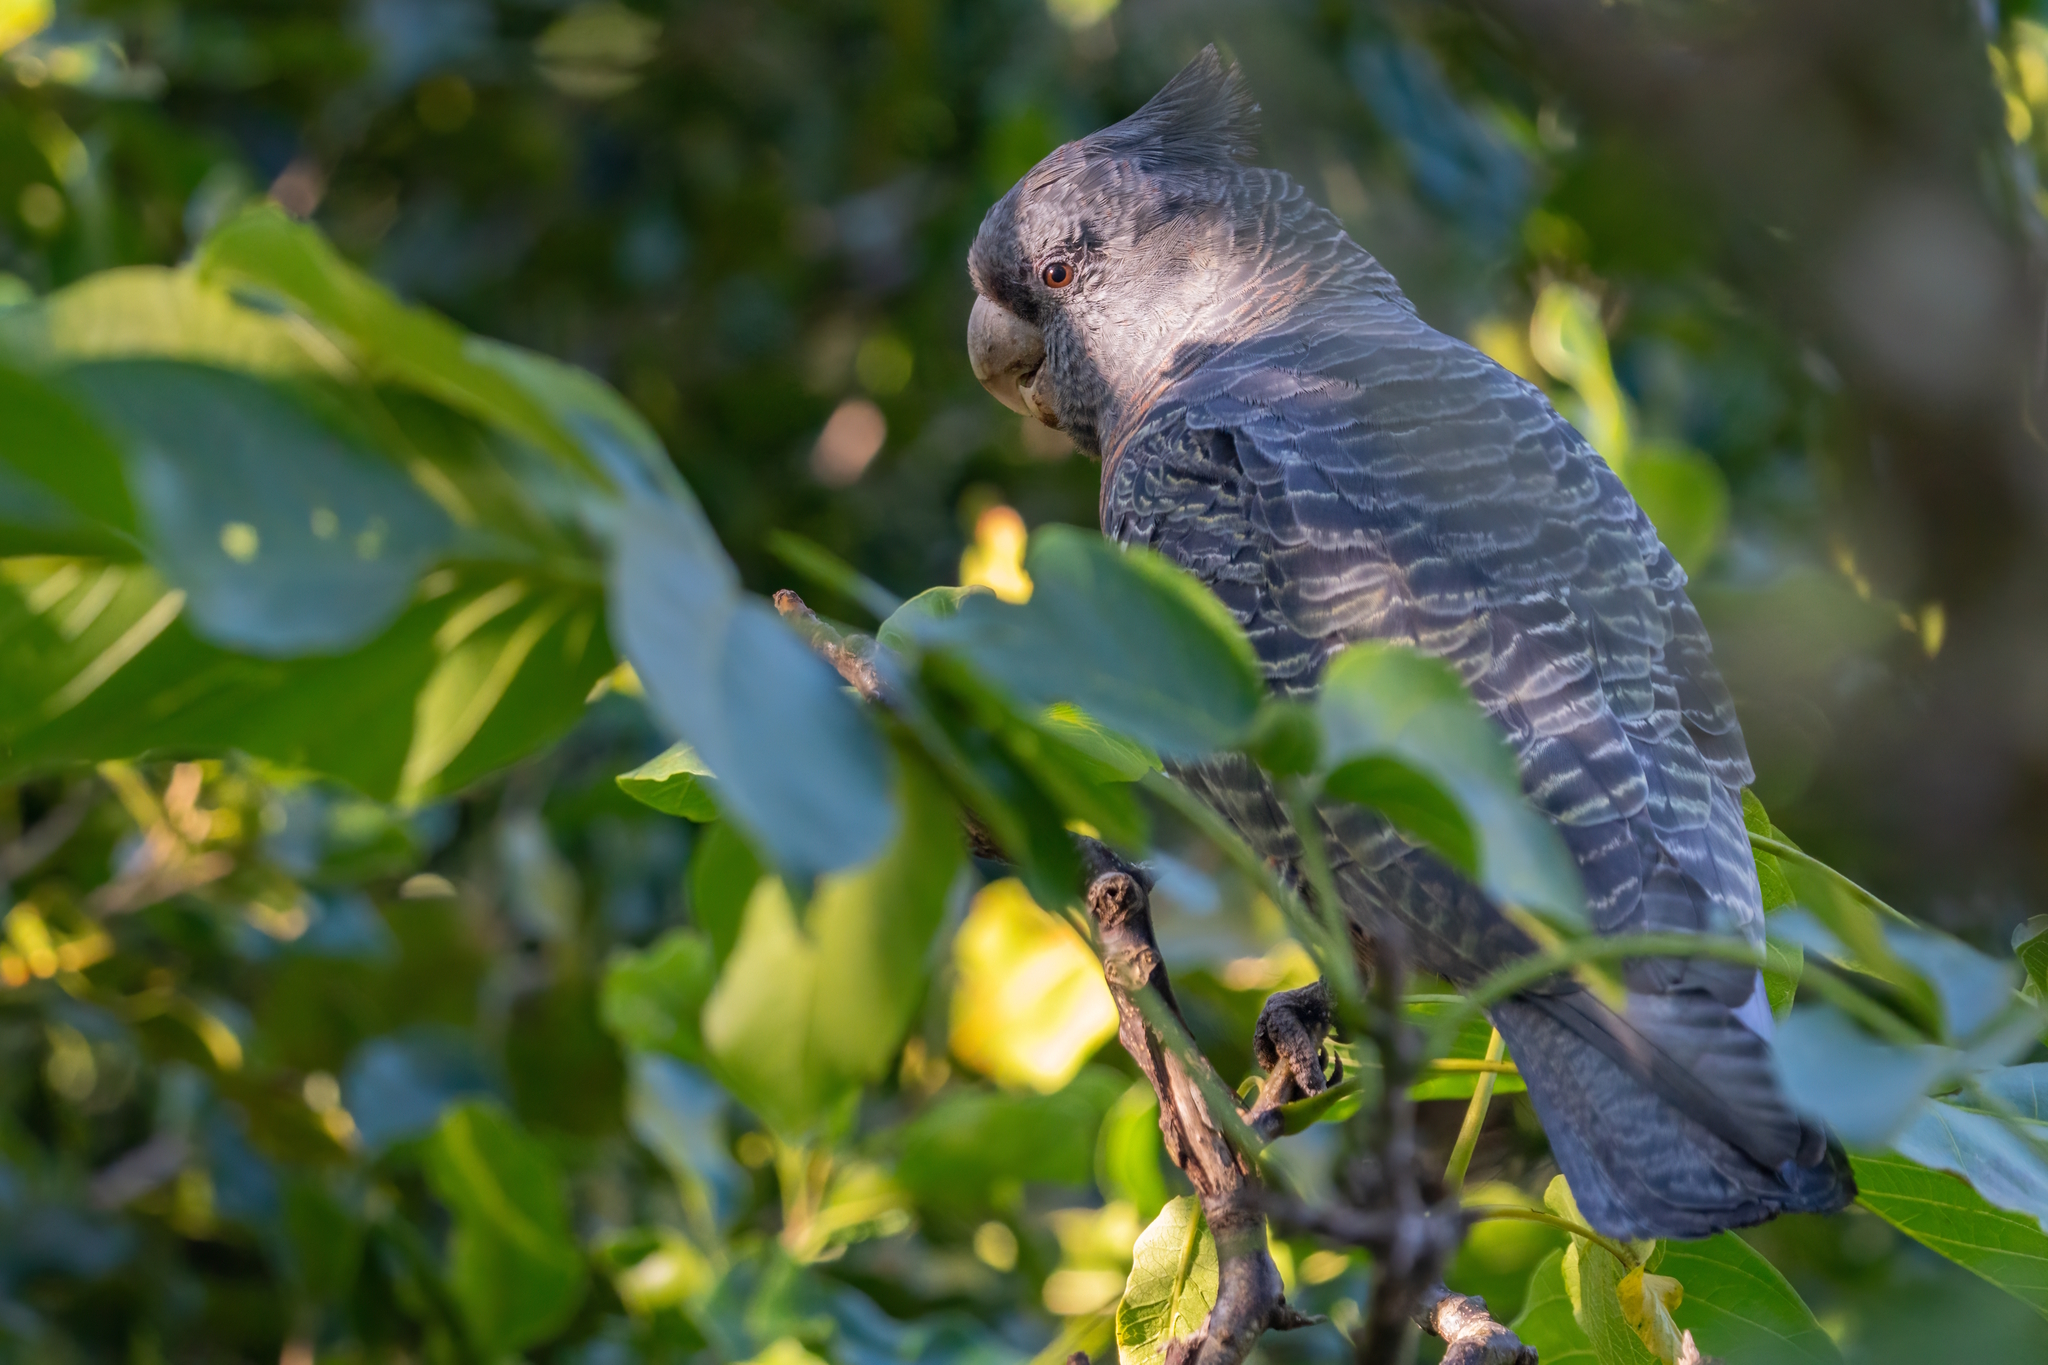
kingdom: Animalia
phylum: Chordata
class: Aves
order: Psittaciformes
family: Psittacidae
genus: Callocephalon
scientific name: Callocephalon fimbriatum
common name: Gang-gang cockatoo
